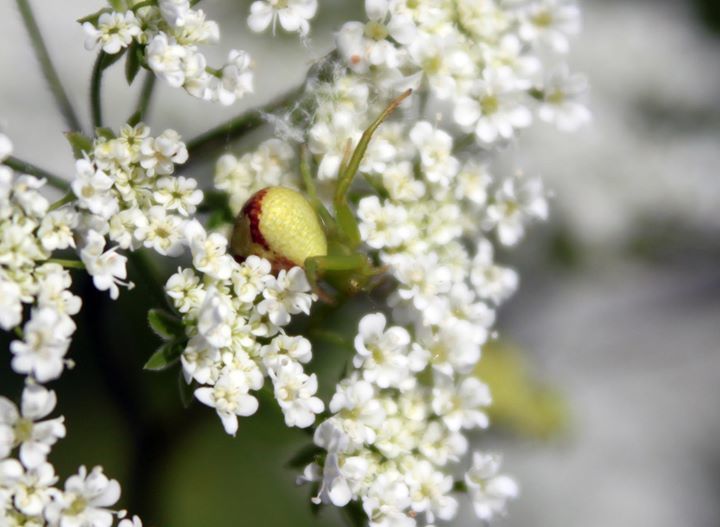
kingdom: Animalia
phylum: Arthropoda
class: Arachnida
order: Araneae
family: Thomisidae
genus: Ebrechtella
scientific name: Ebrechtella tricuspidata
